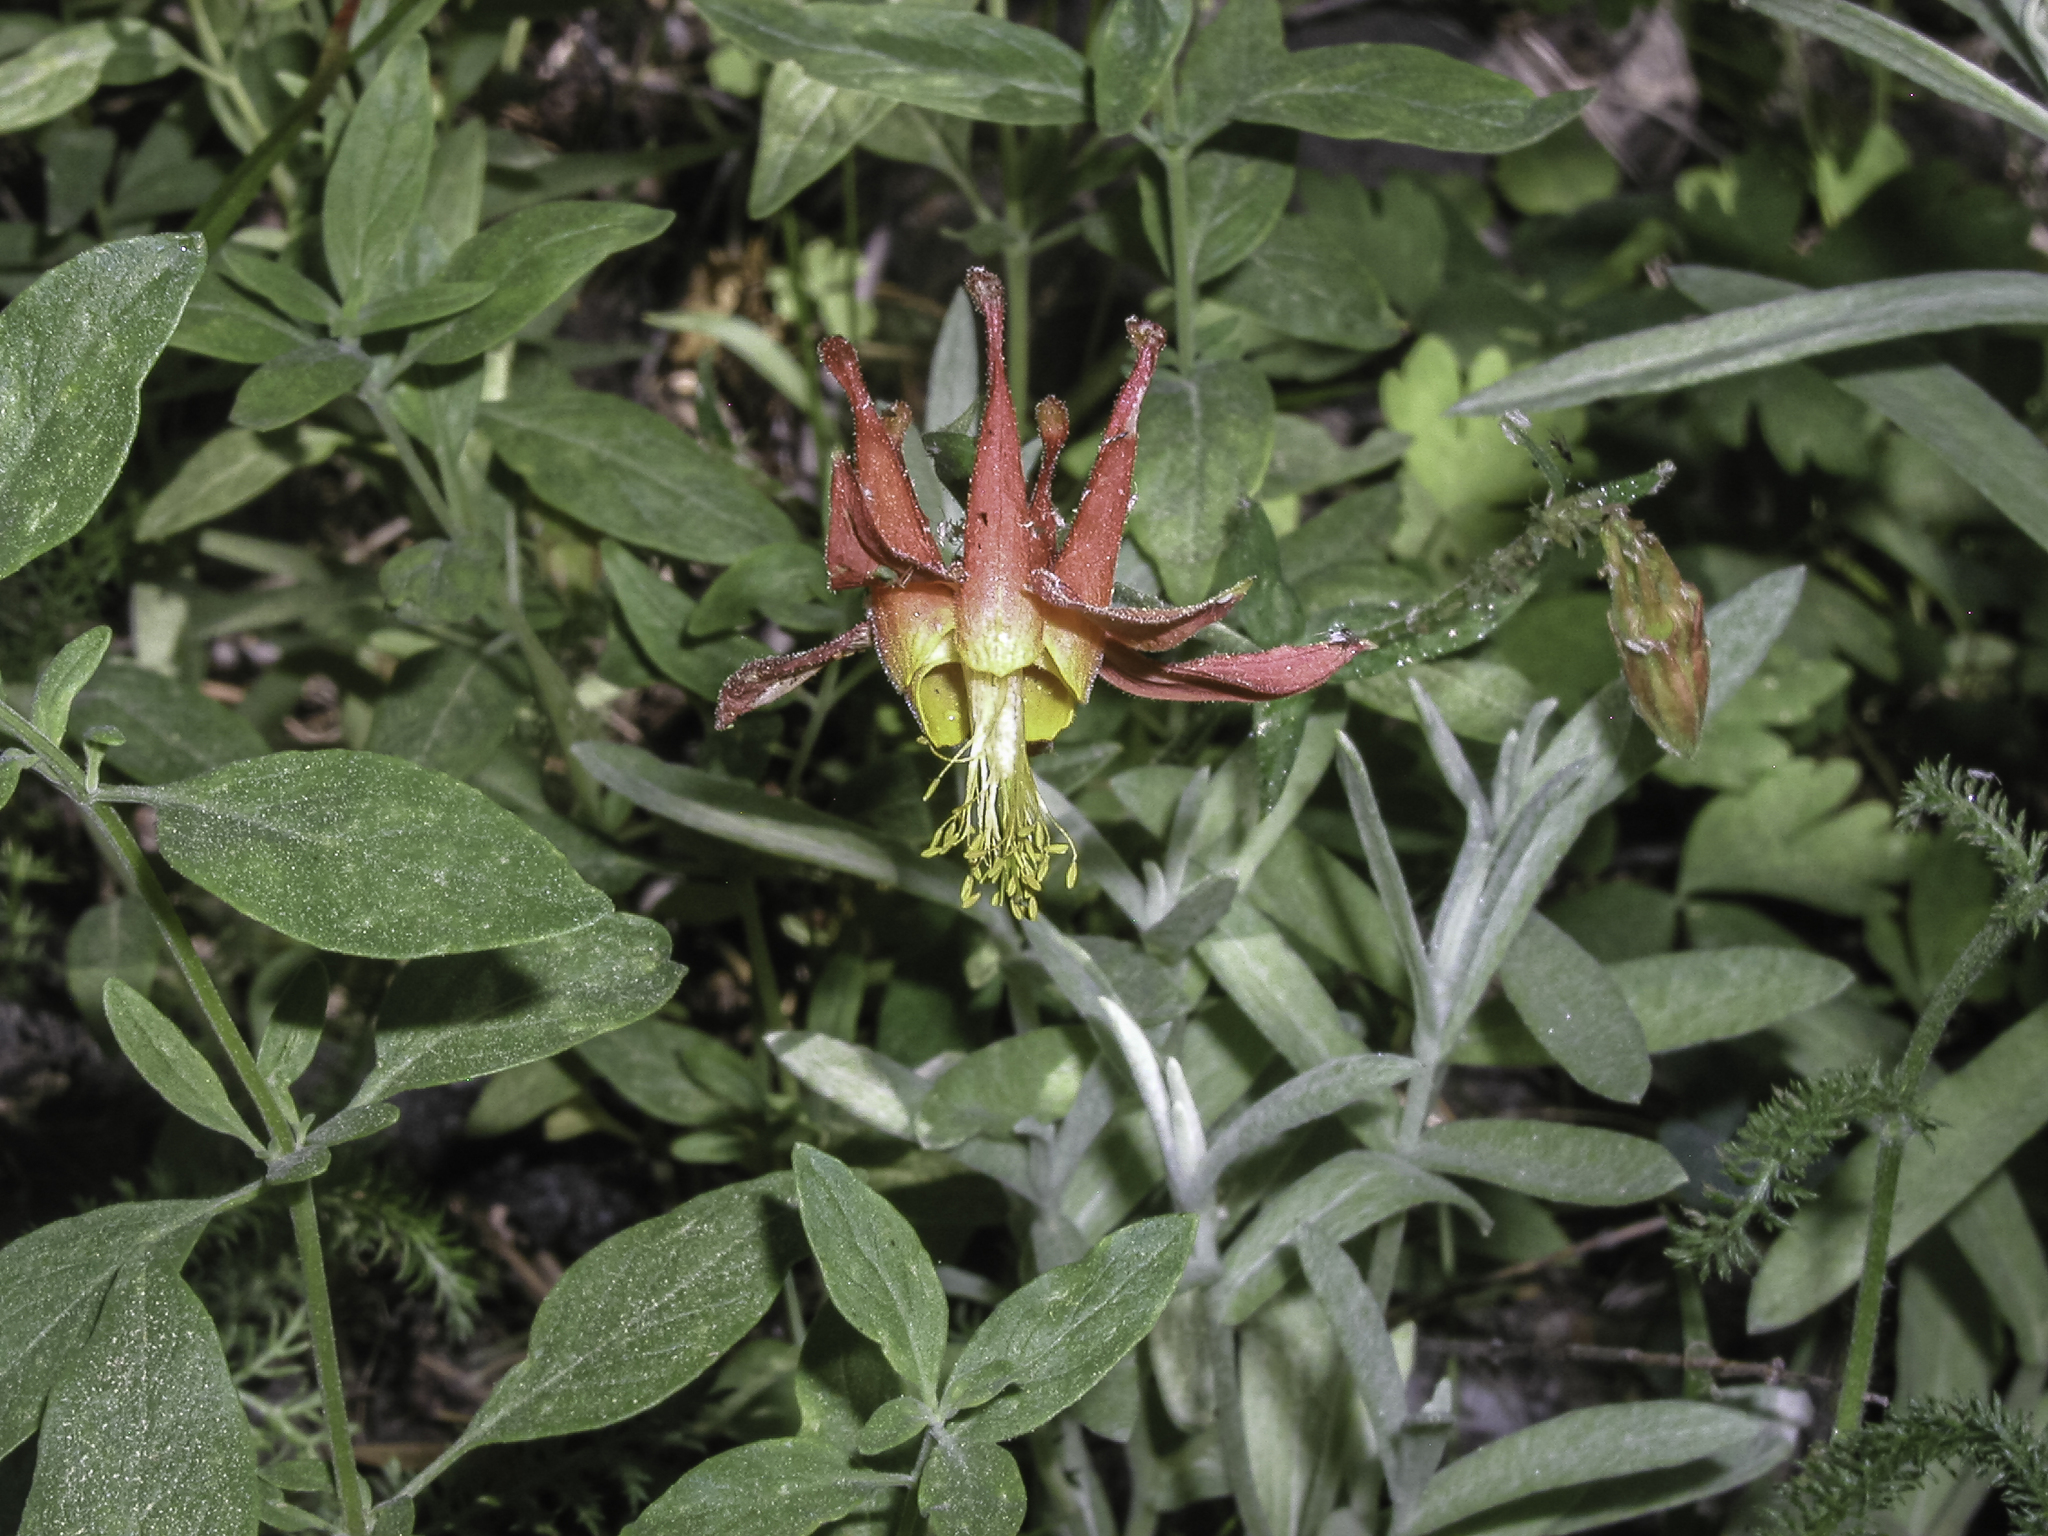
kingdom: Plantae
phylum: Tracheophyta
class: Magnoliopsida
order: Ranunculales
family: Ranunculaceae
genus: Aquilegia
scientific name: Aquilegia formosa
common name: Sitka columbine
